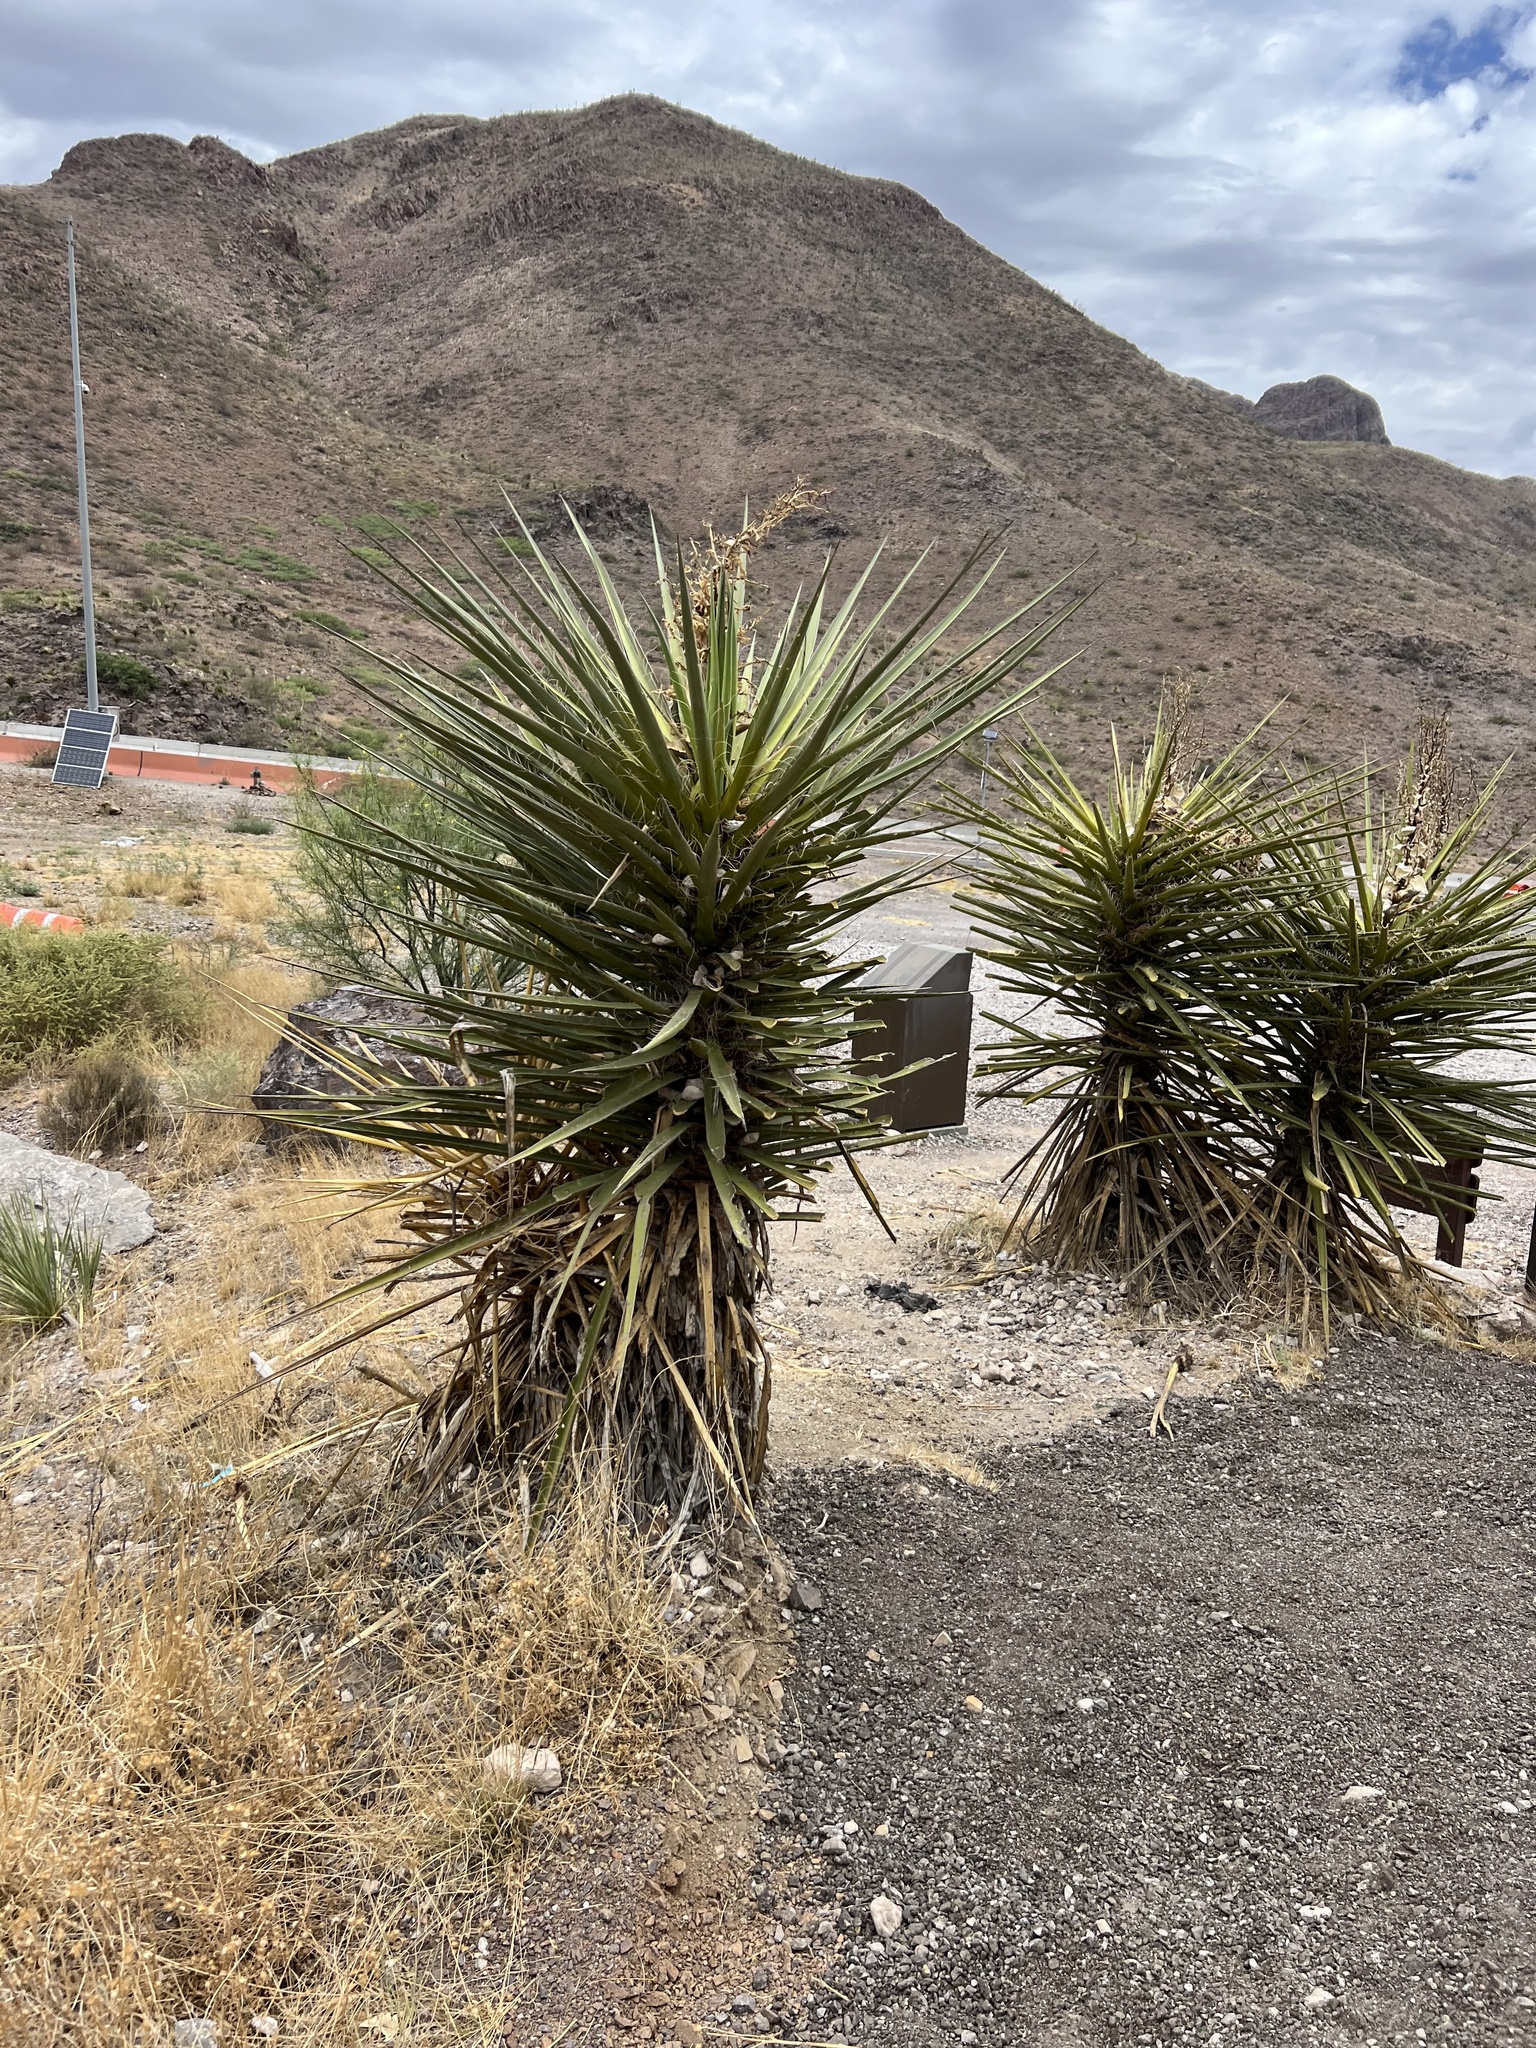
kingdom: Plantae
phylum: Tracheophyta
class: Liliopsida
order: Asparagales
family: Asparagaceae
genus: Yucca
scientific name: Yucca treculiana
